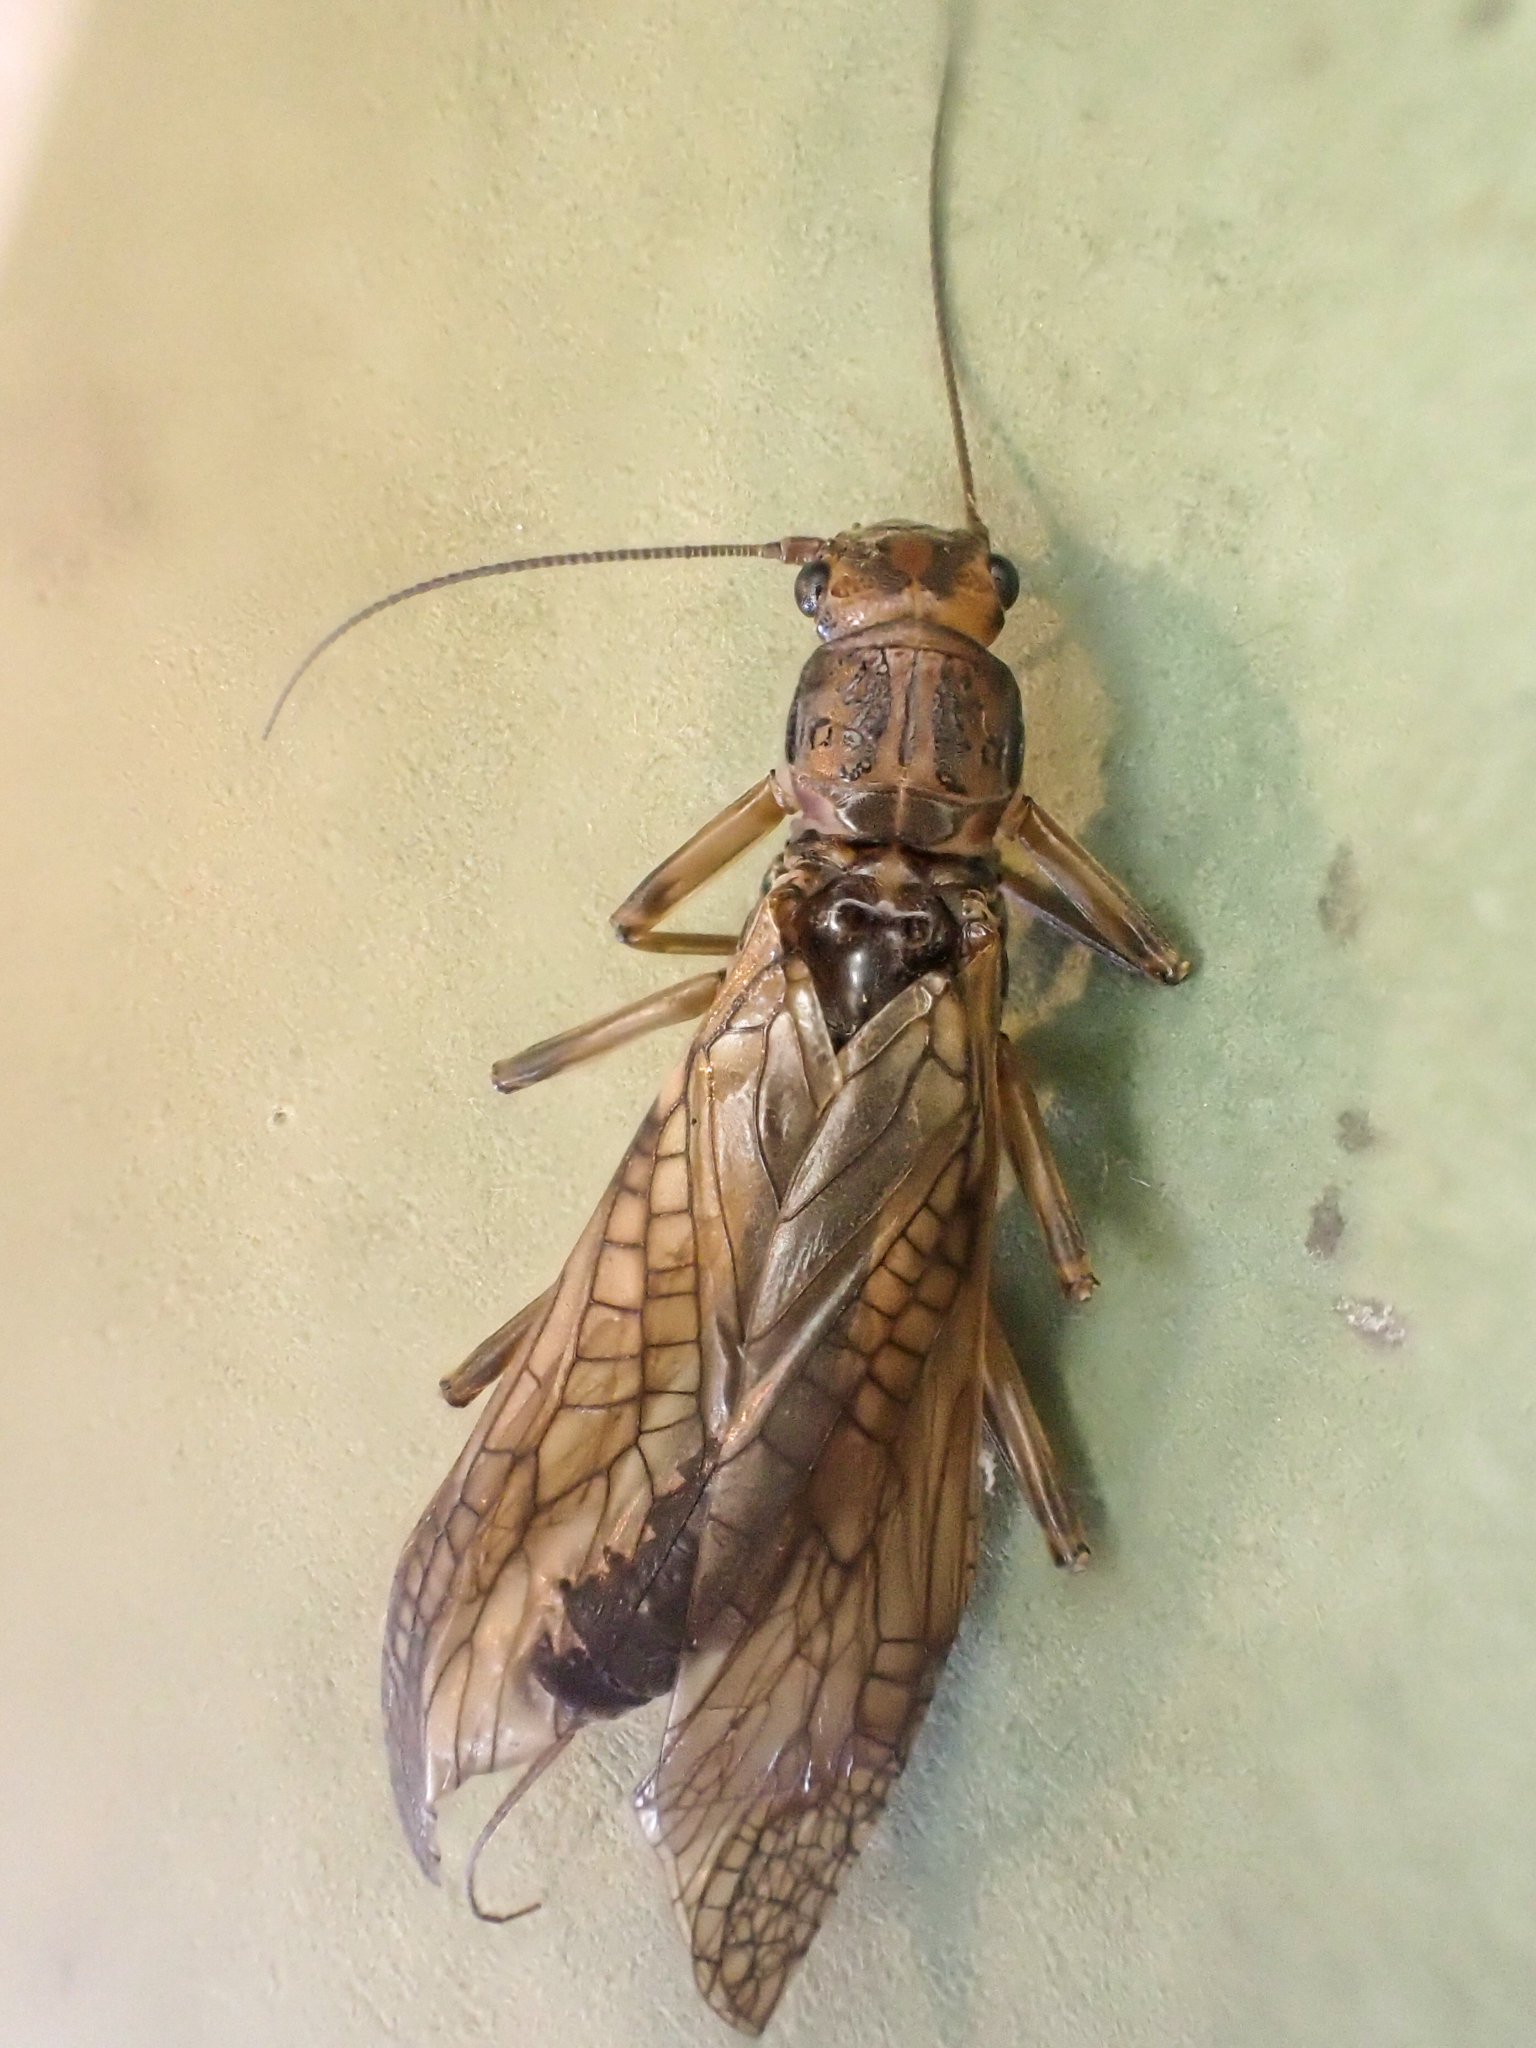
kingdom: Animalia
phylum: Arthropoda
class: Insecta
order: Plecoptera
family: Perlodidae
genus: Megarcys
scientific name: Megarcys signata
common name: Larimide springfly
